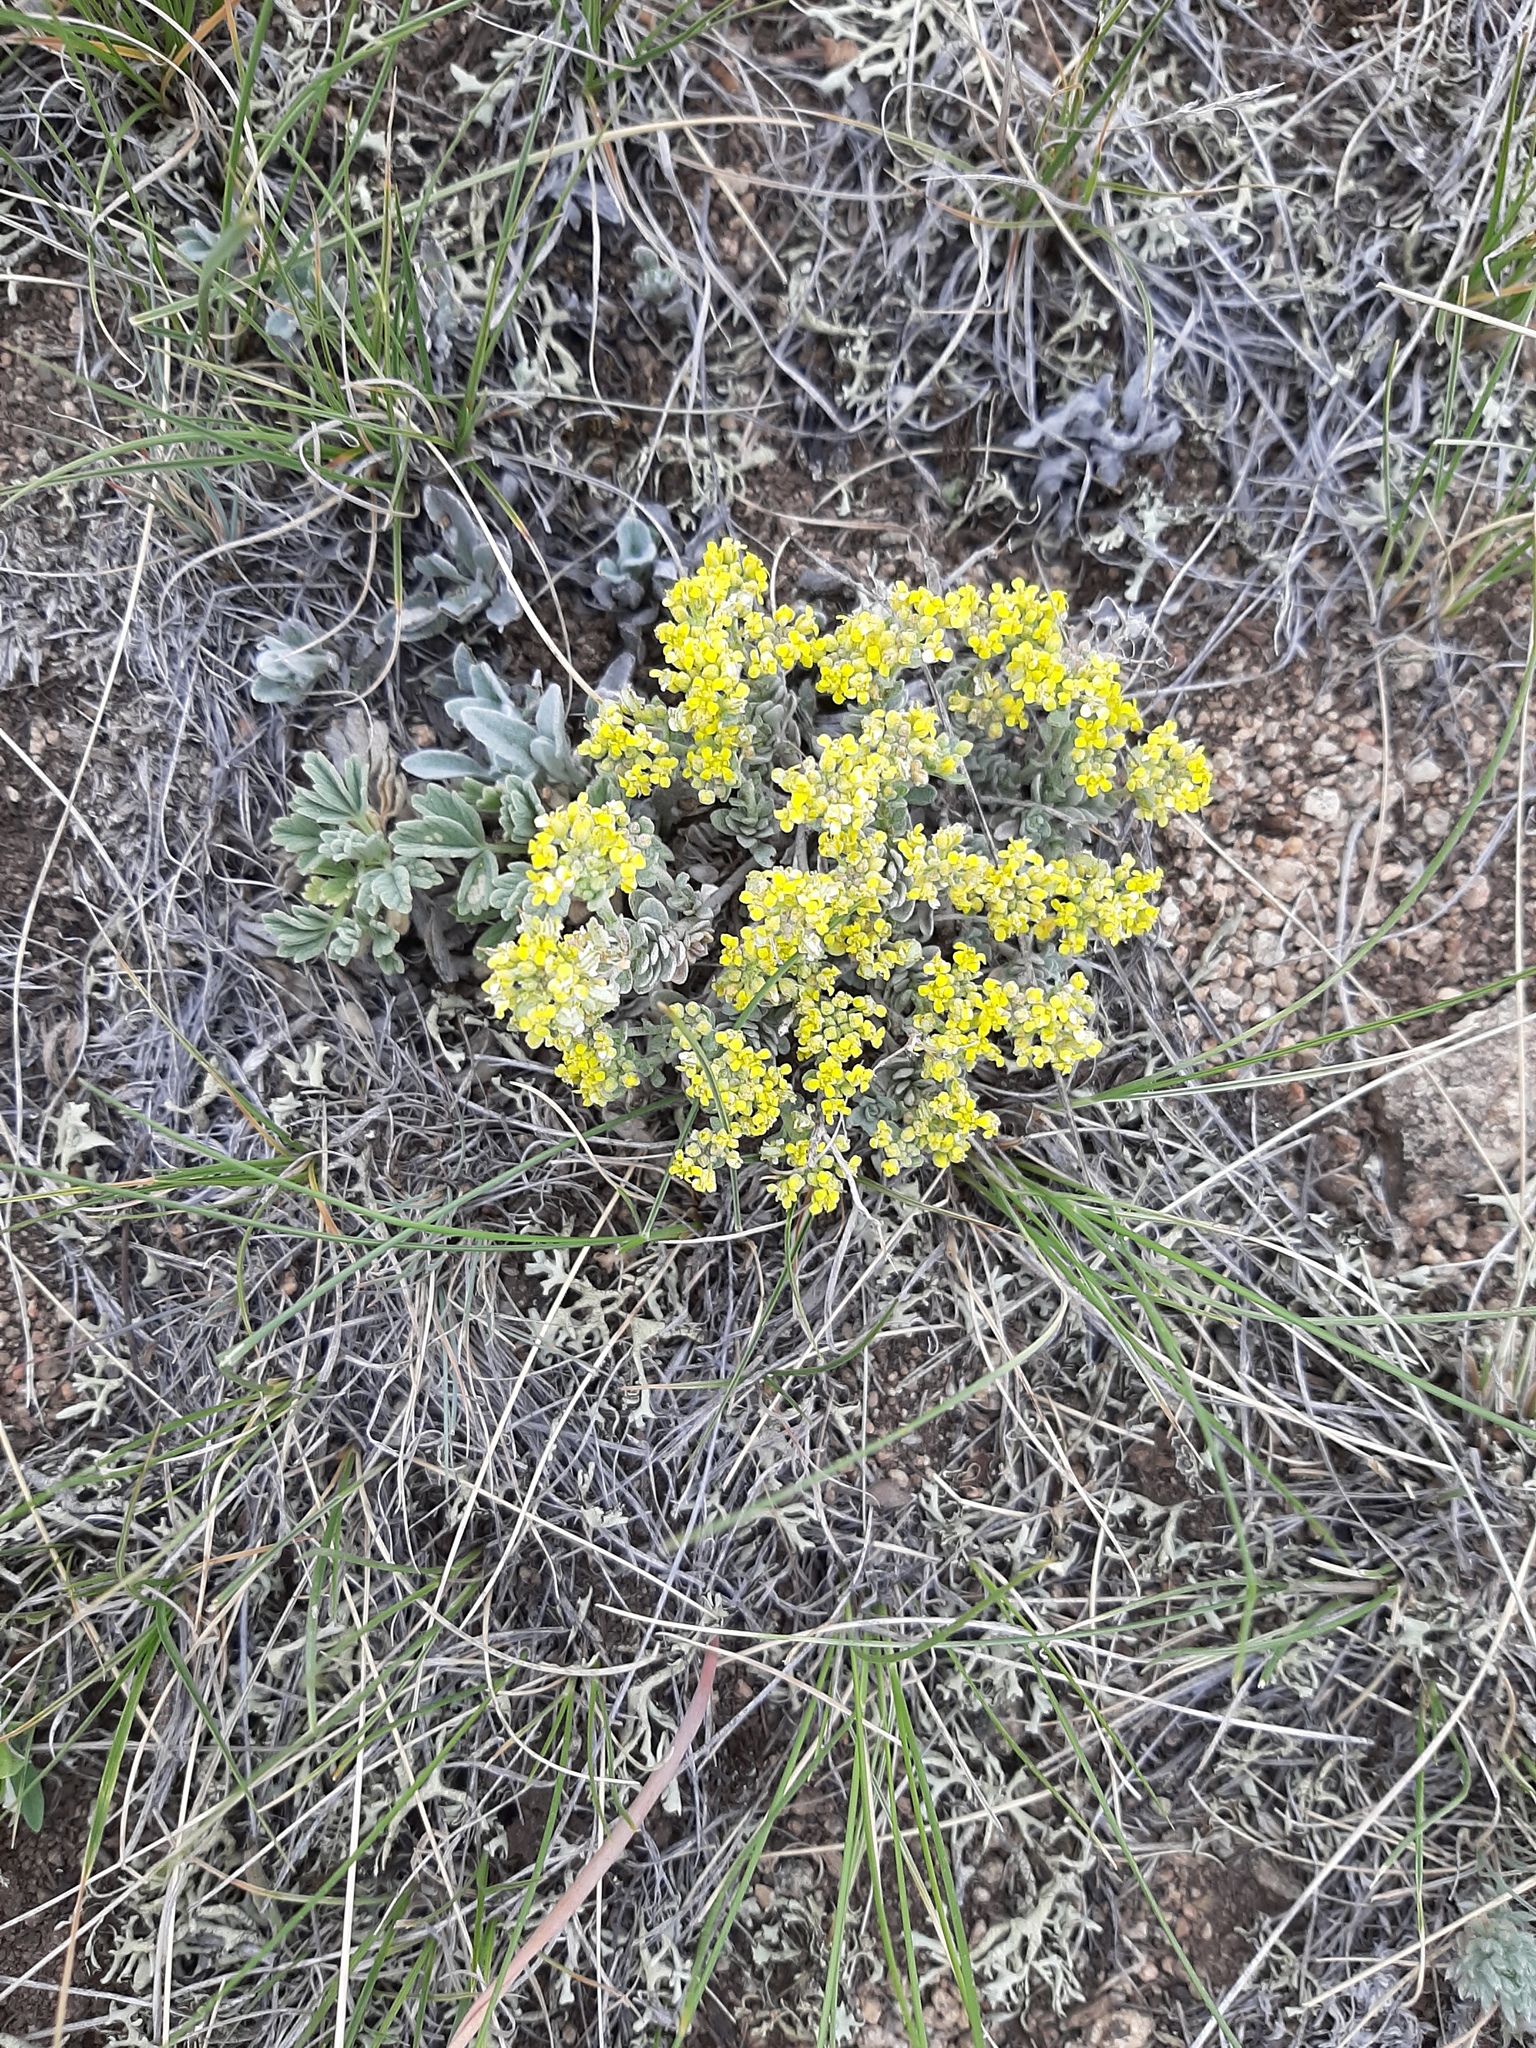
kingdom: Plantae
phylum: Tracheophyta
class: Magnoliopsida
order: Brassicales
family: Brassicaceae
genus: Odontarrhena
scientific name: Odontarrhena tortuosa
